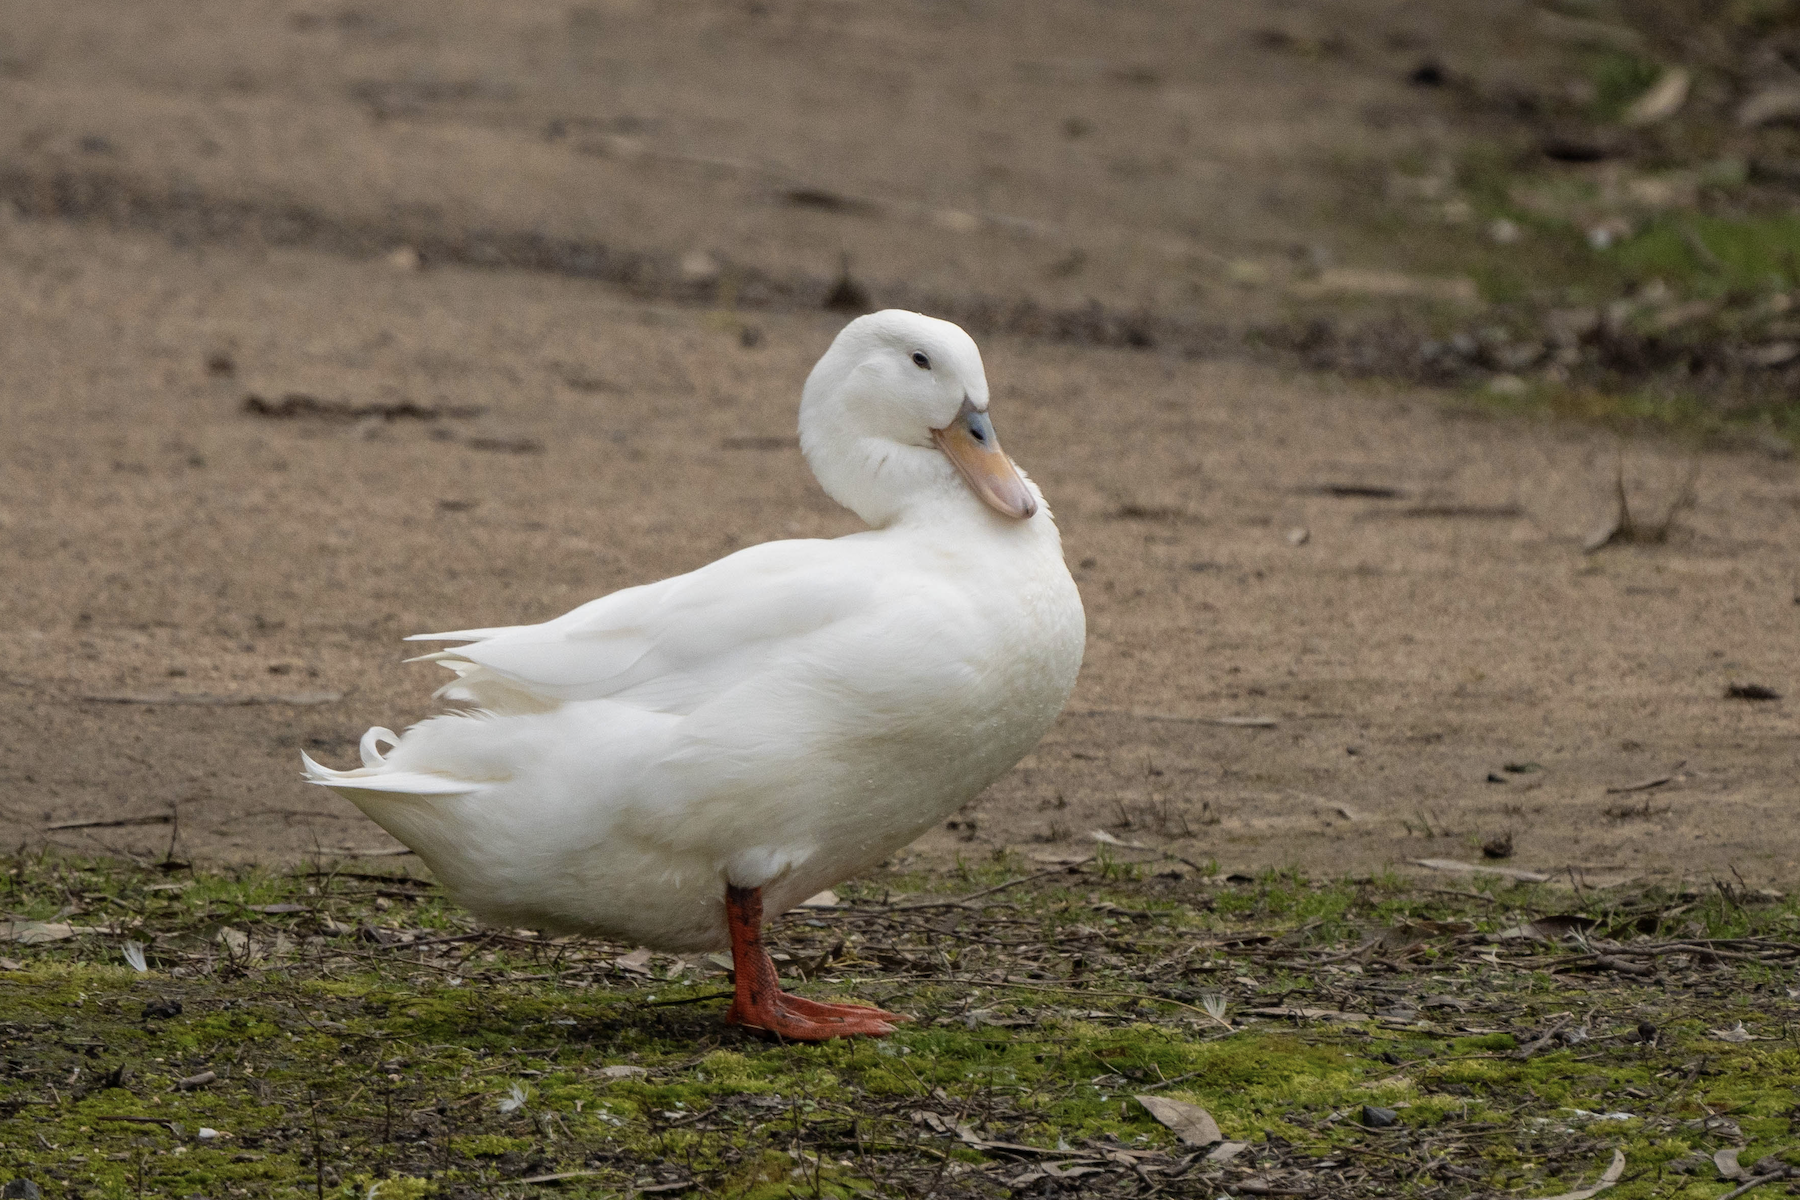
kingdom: Animalia
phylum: Chordata
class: Aves
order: Anseriformes
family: Anatidae
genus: Anas
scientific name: Anas platyrhynchos
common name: Mallard
